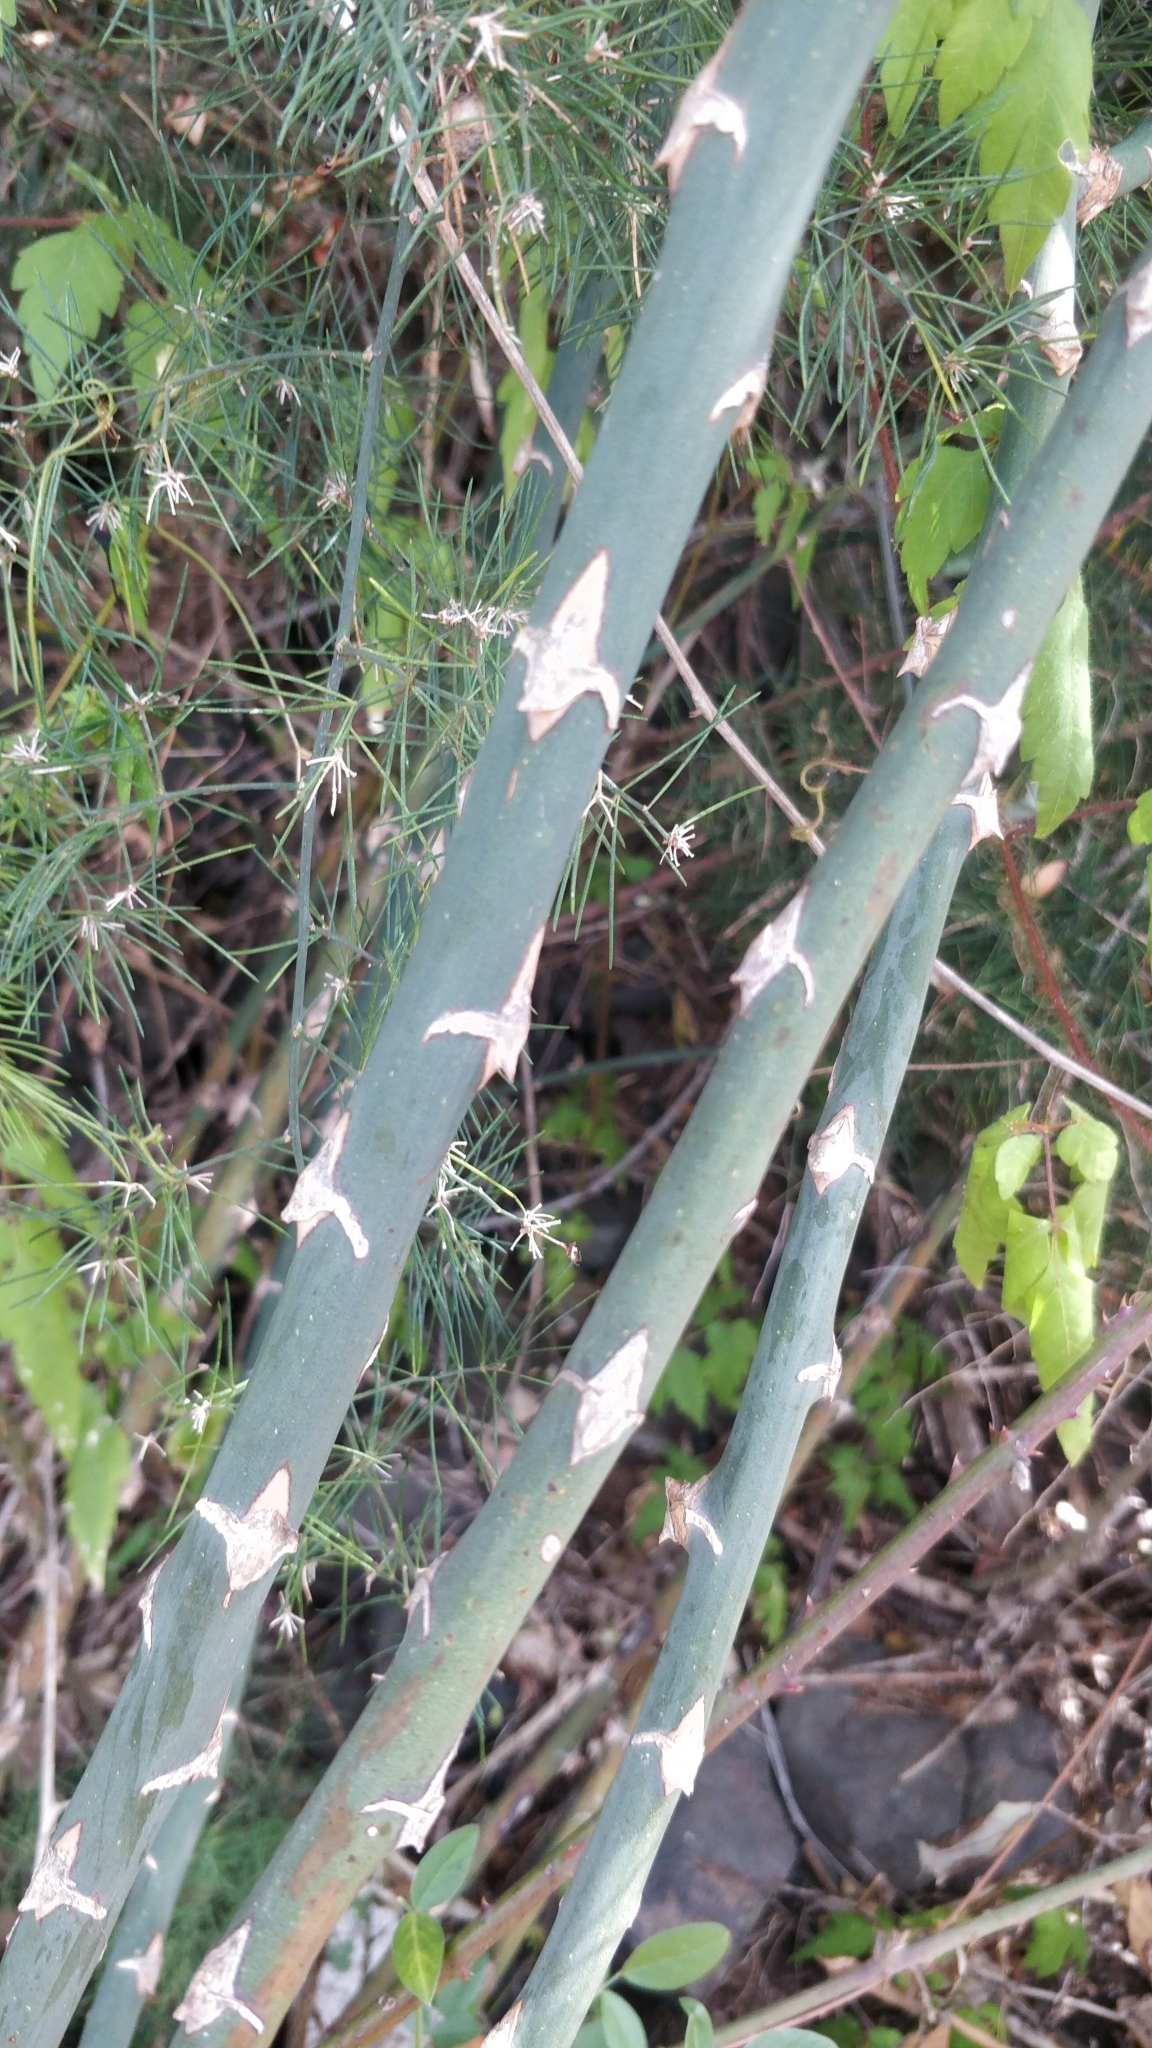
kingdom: Plantae
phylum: Tracheophyta
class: Liliopsida
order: Asparagales
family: Asparagaceae
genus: Asparagus
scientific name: Asparagus umbellatus
